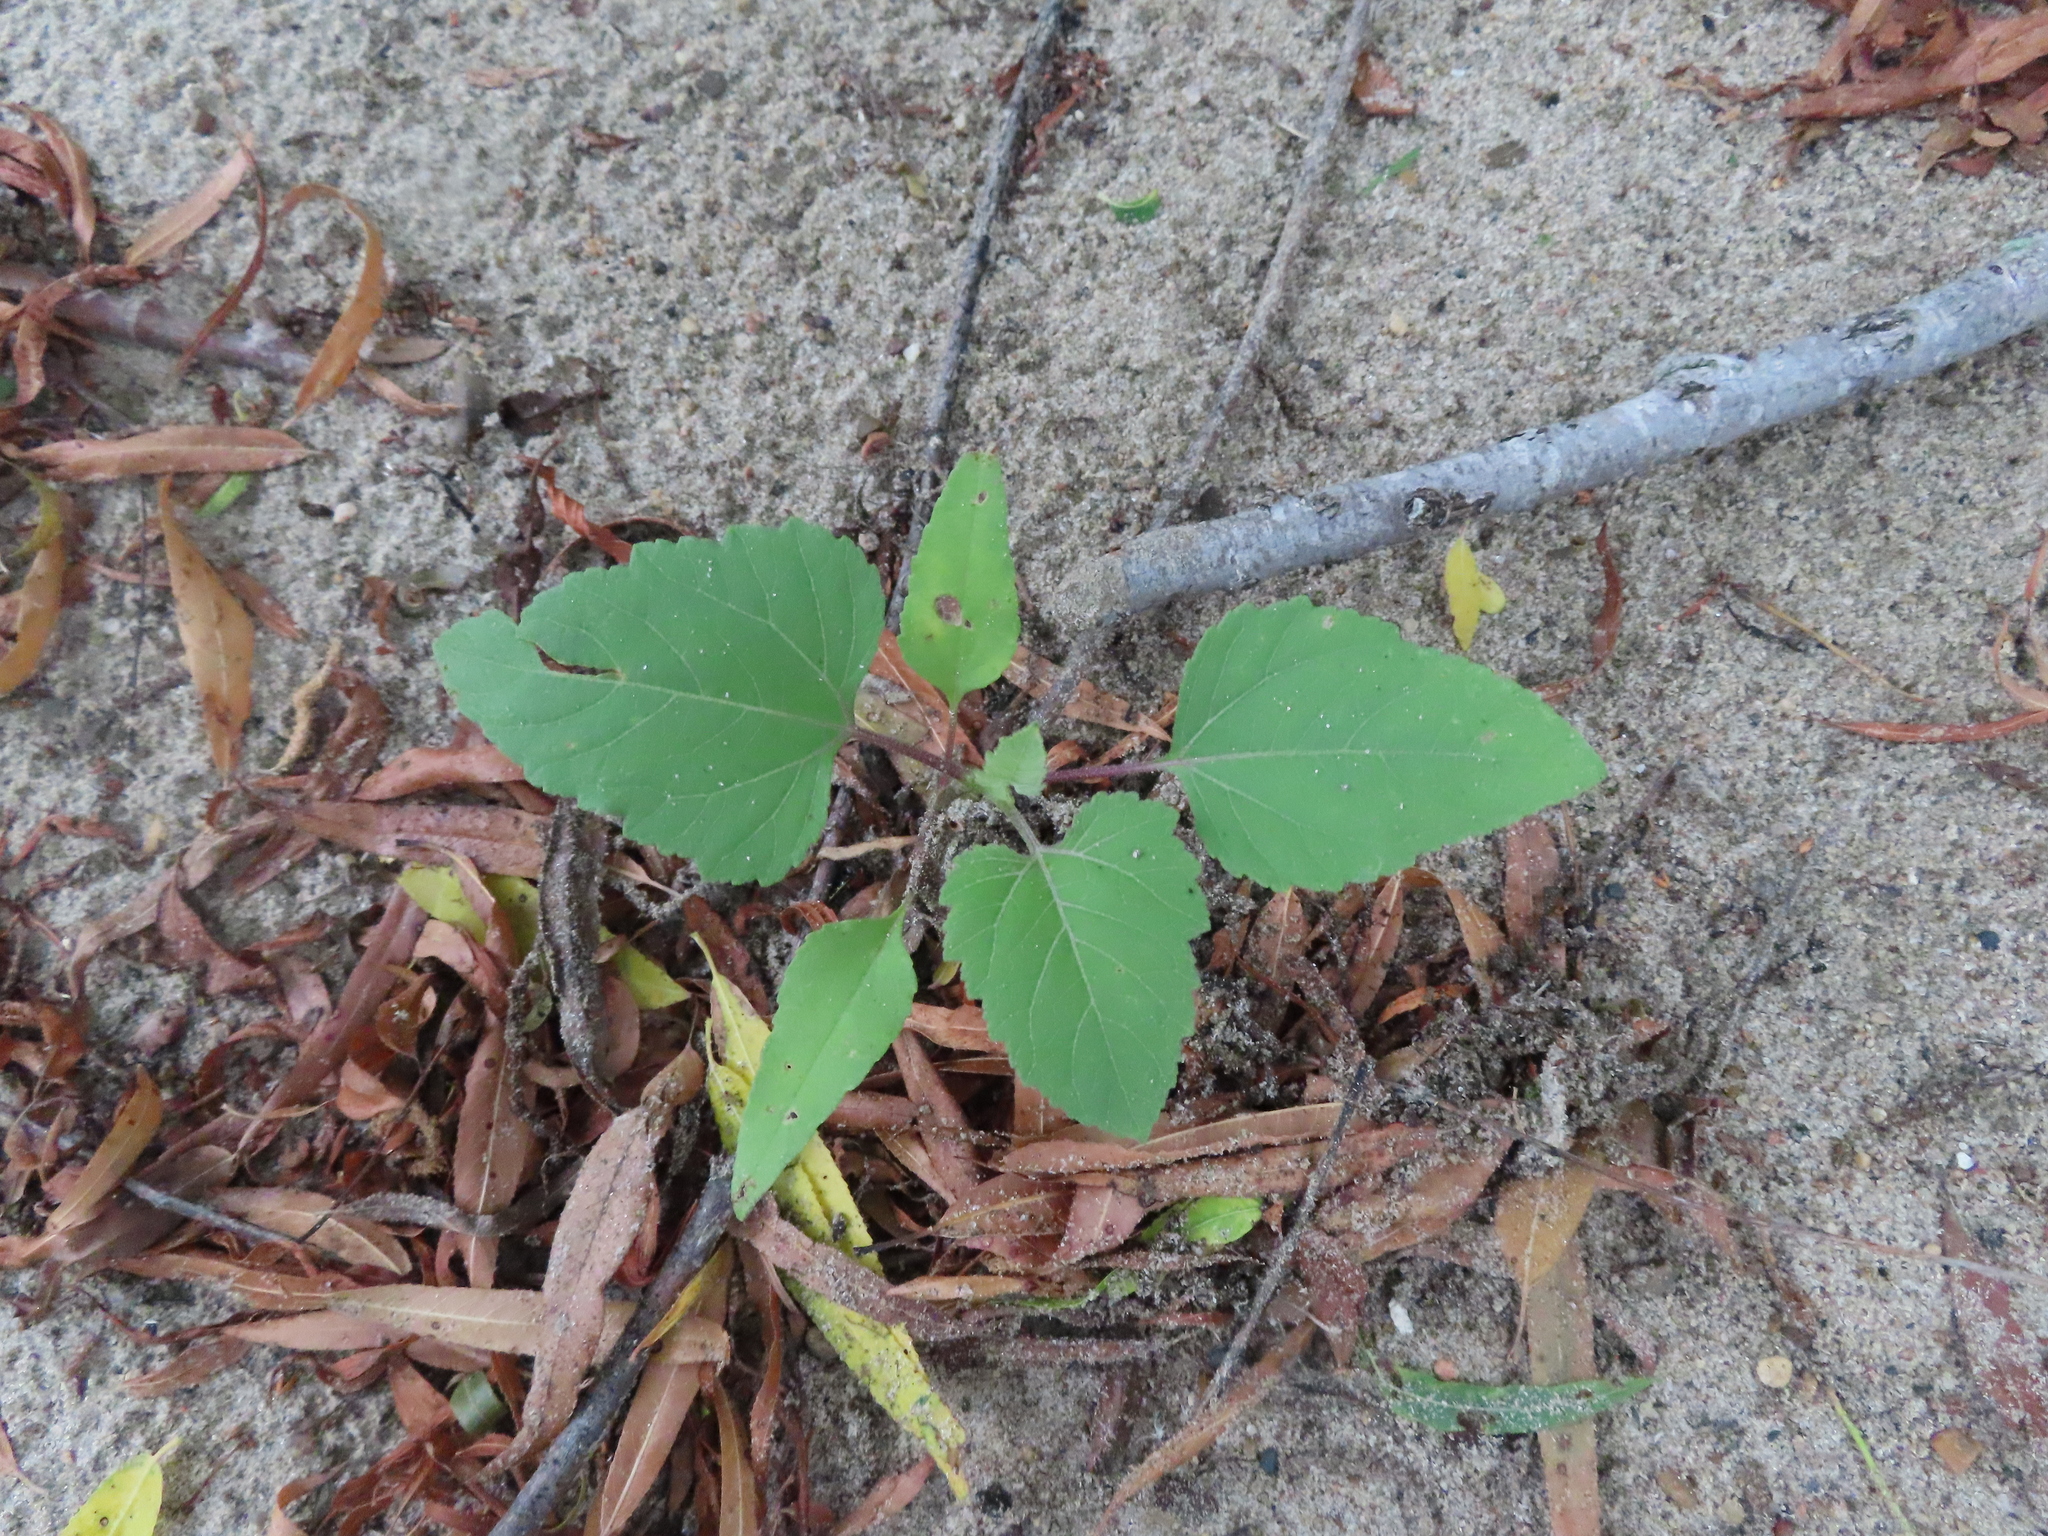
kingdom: Plantae
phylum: Tracheophyta
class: Magnoliopsida
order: Asterales
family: Asteraceae
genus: Xanthium
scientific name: Xanthium
